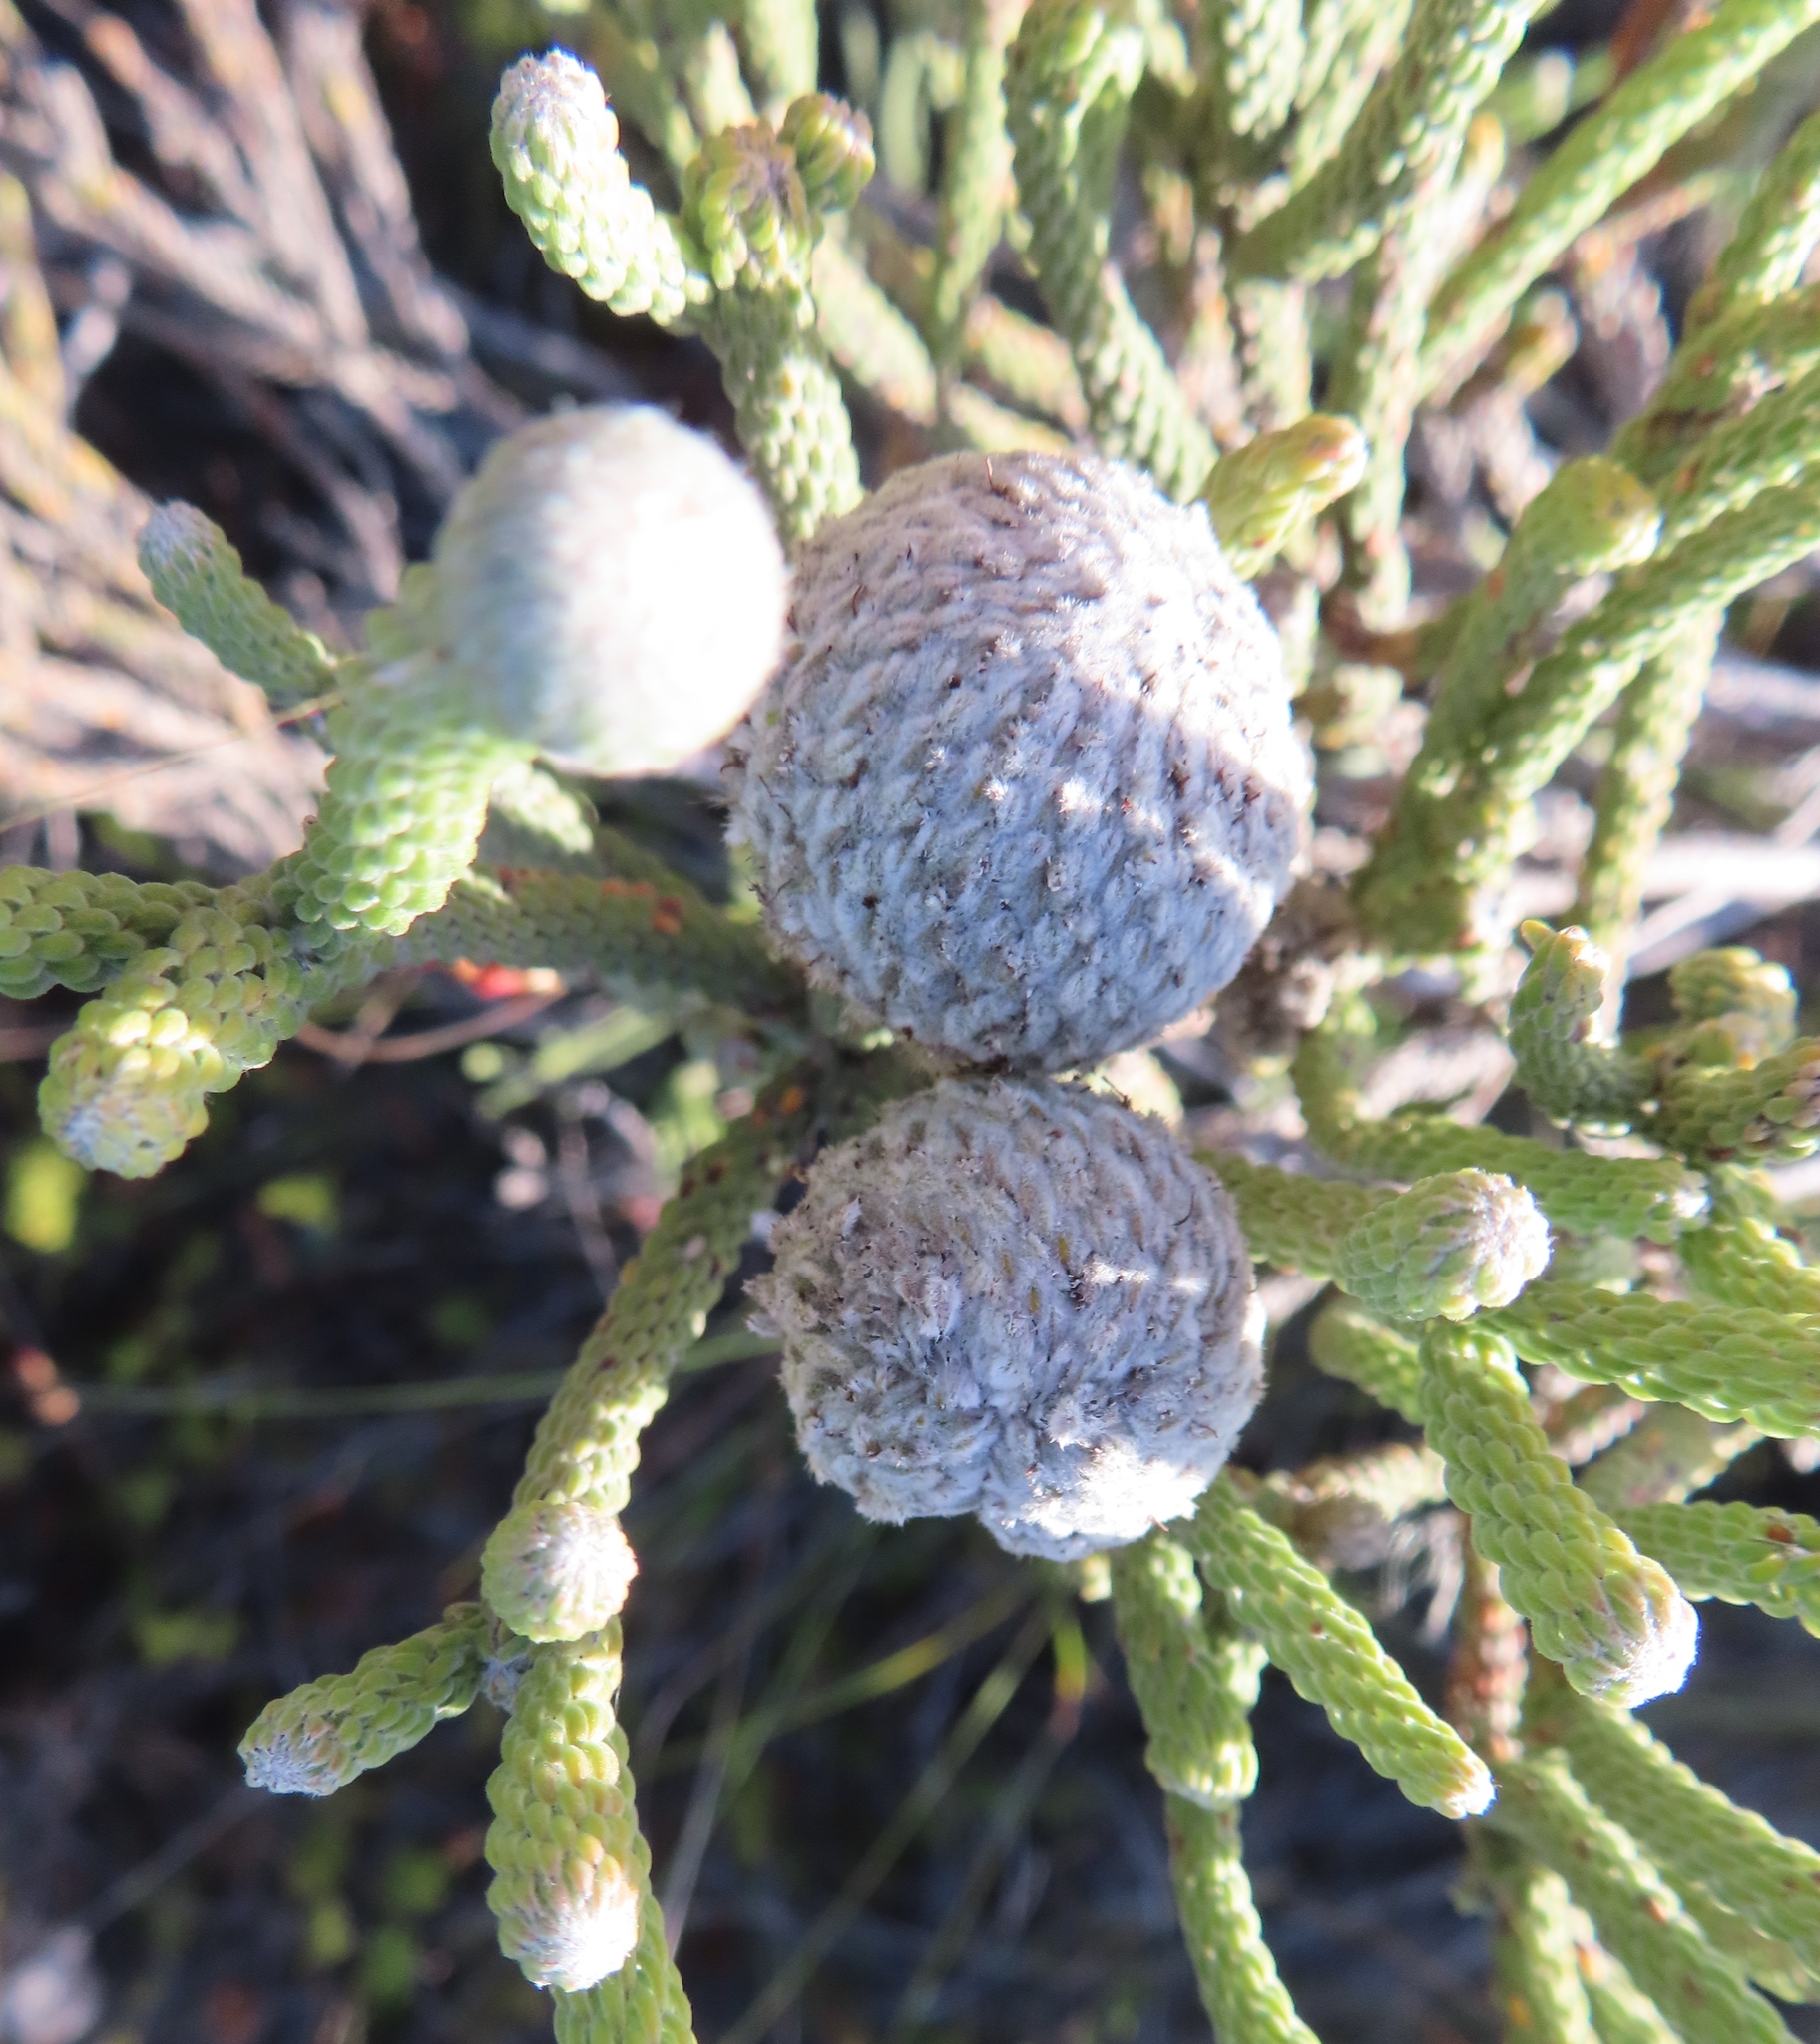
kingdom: Plantae
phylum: Tracheophyta
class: Magnoliopsida
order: Bruniales
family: Bruniaceae
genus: Brunia
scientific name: Brunia noduliflora
